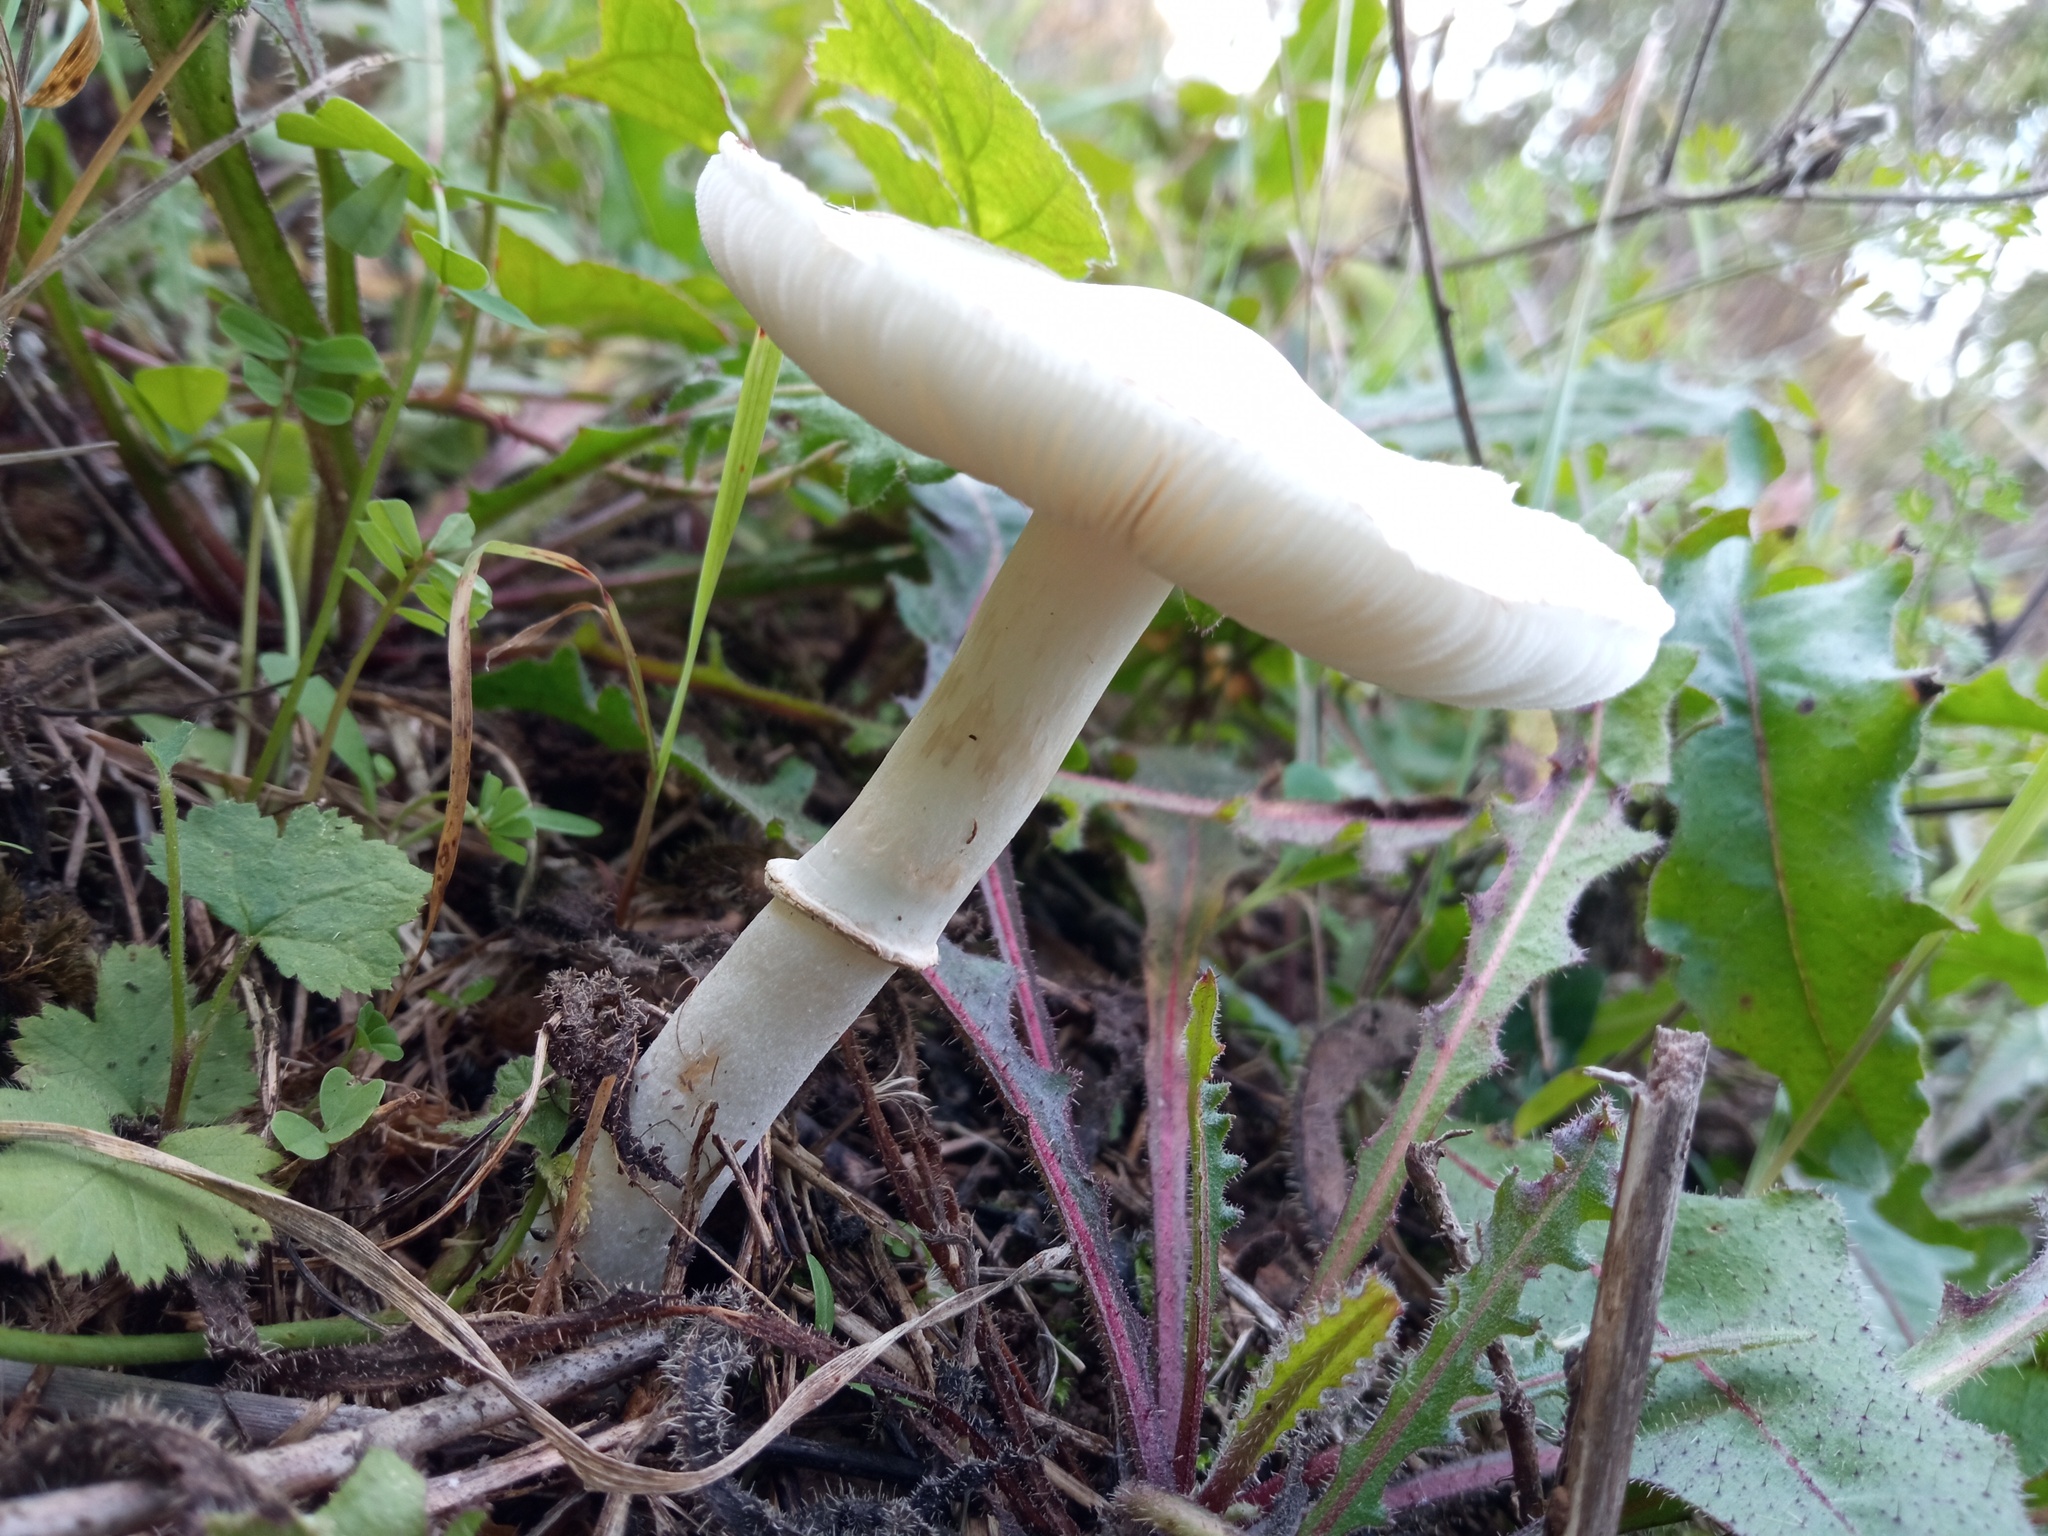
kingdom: Fungi
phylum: Basidiomycota
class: Agaricomycetes
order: Agaricales
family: Agaricaceae
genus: Leucoagaricus
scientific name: Leucoagaricus leucothites
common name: White dapperling
